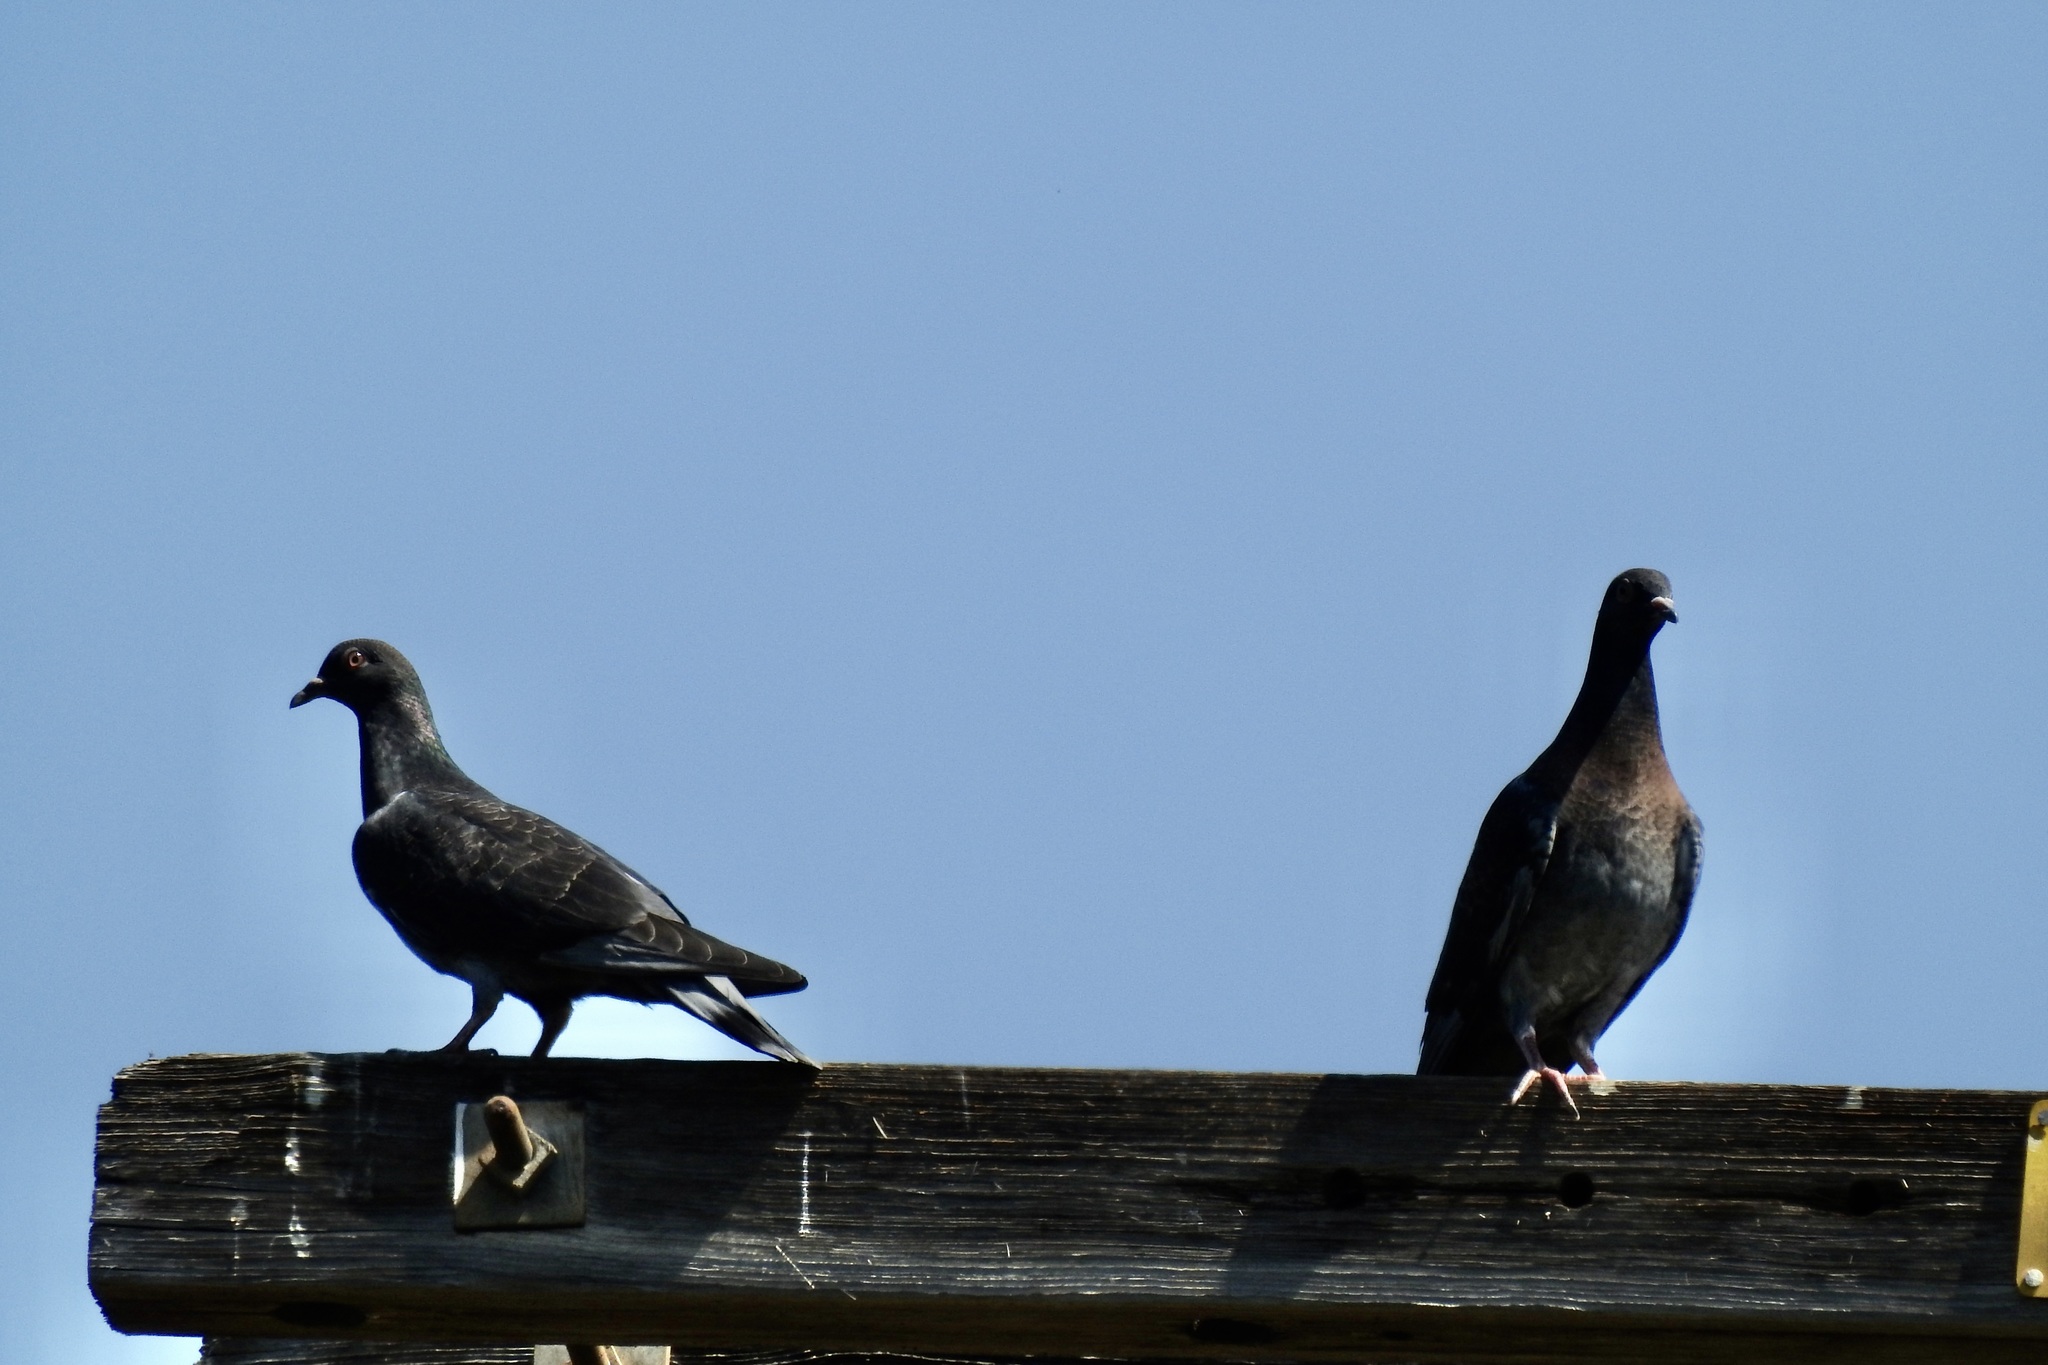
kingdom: Animalia
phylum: Chordata
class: Aves
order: Columbiformes
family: Columbidae
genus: Columba
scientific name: Columba livia
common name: Rock pigeon
